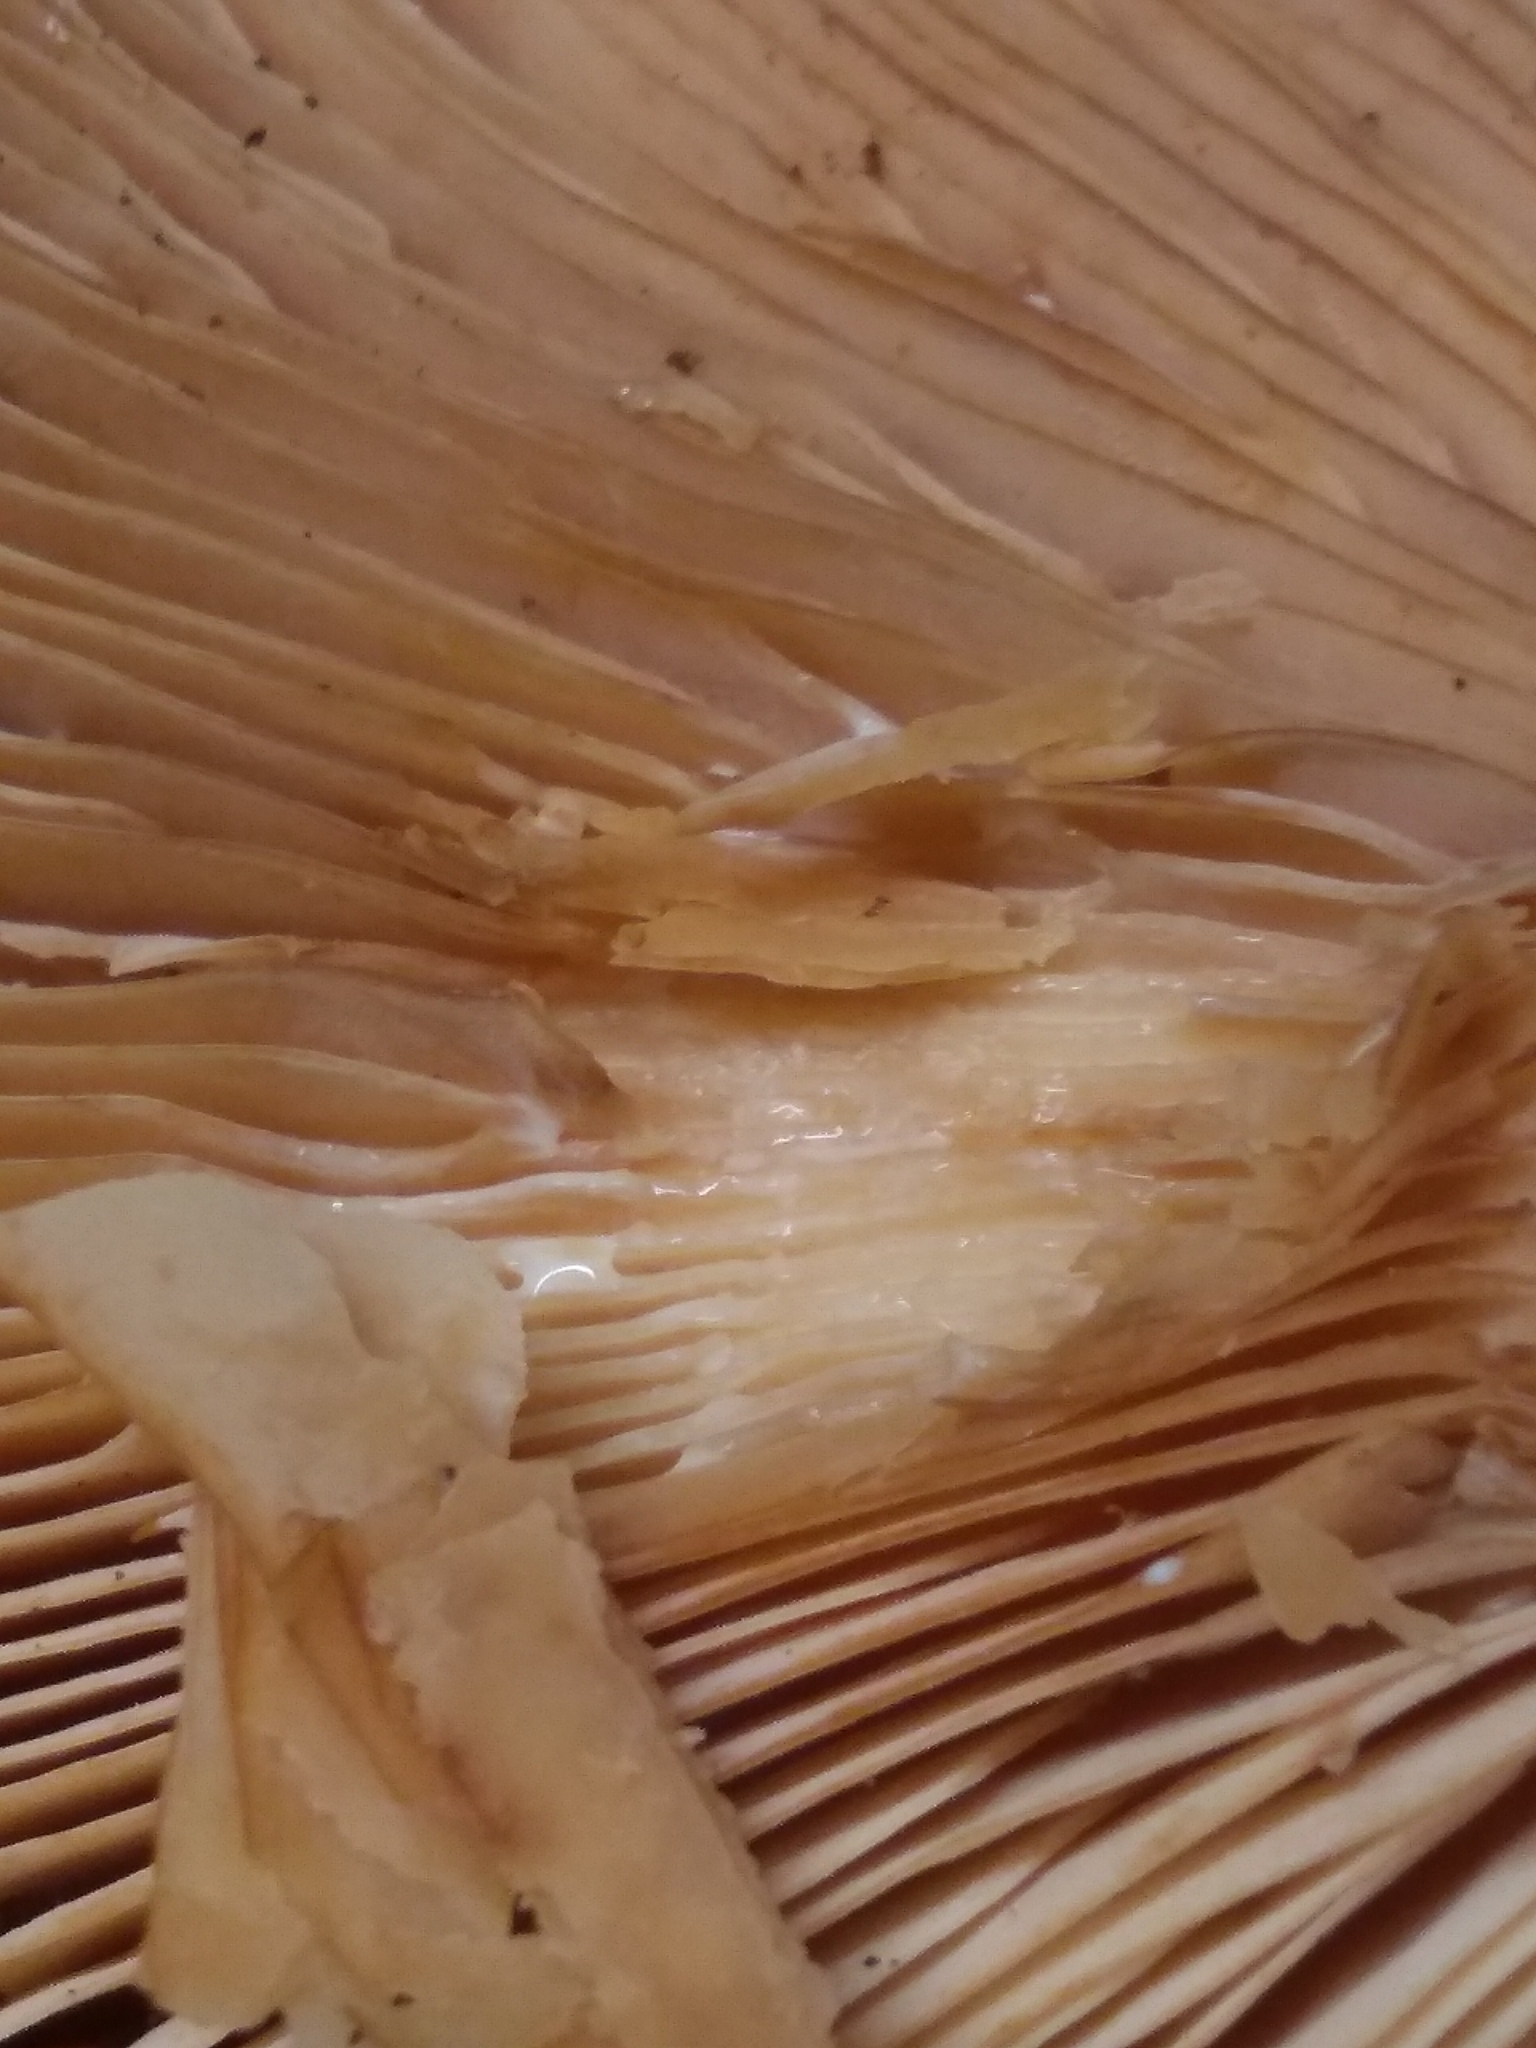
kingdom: Fungi
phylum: Basidiomycota
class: Agaricomycetes
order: Russulales
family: Russulaceae
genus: Lactarius
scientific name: Lactarius rufus
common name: Rufous milk-cap
